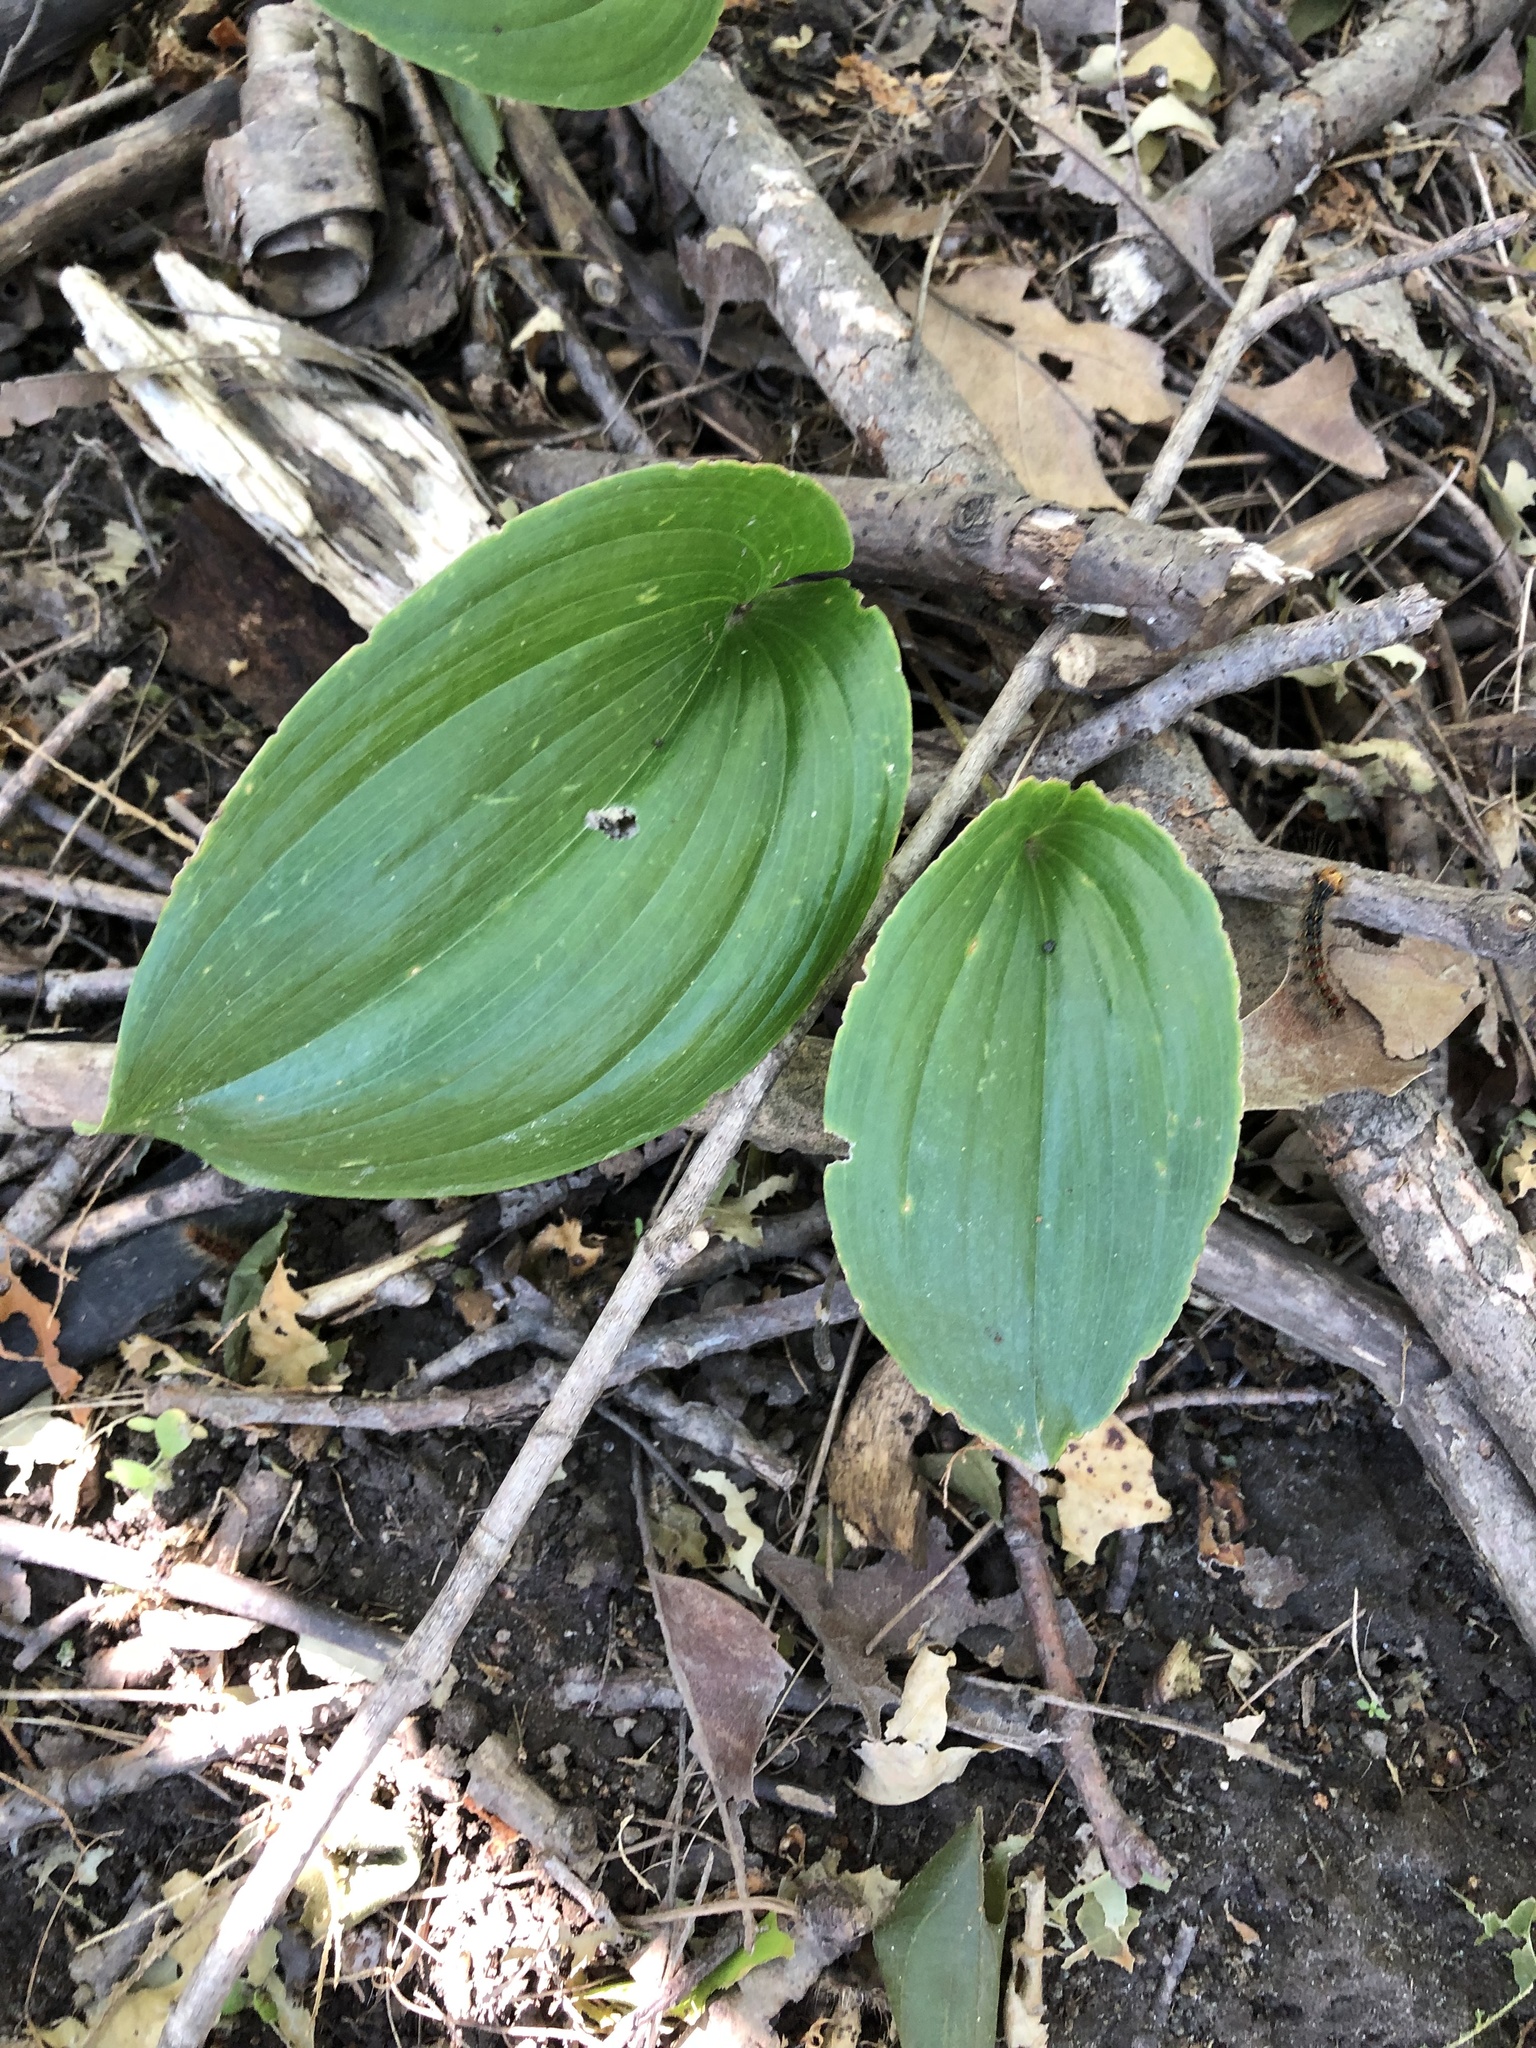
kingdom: Plantae
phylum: Tracheophyta
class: Liliopsida
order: Asparagales
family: Asparagaceae
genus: Maianthemum
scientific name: Maianthemum canadense
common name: False lily-of-the-valley
